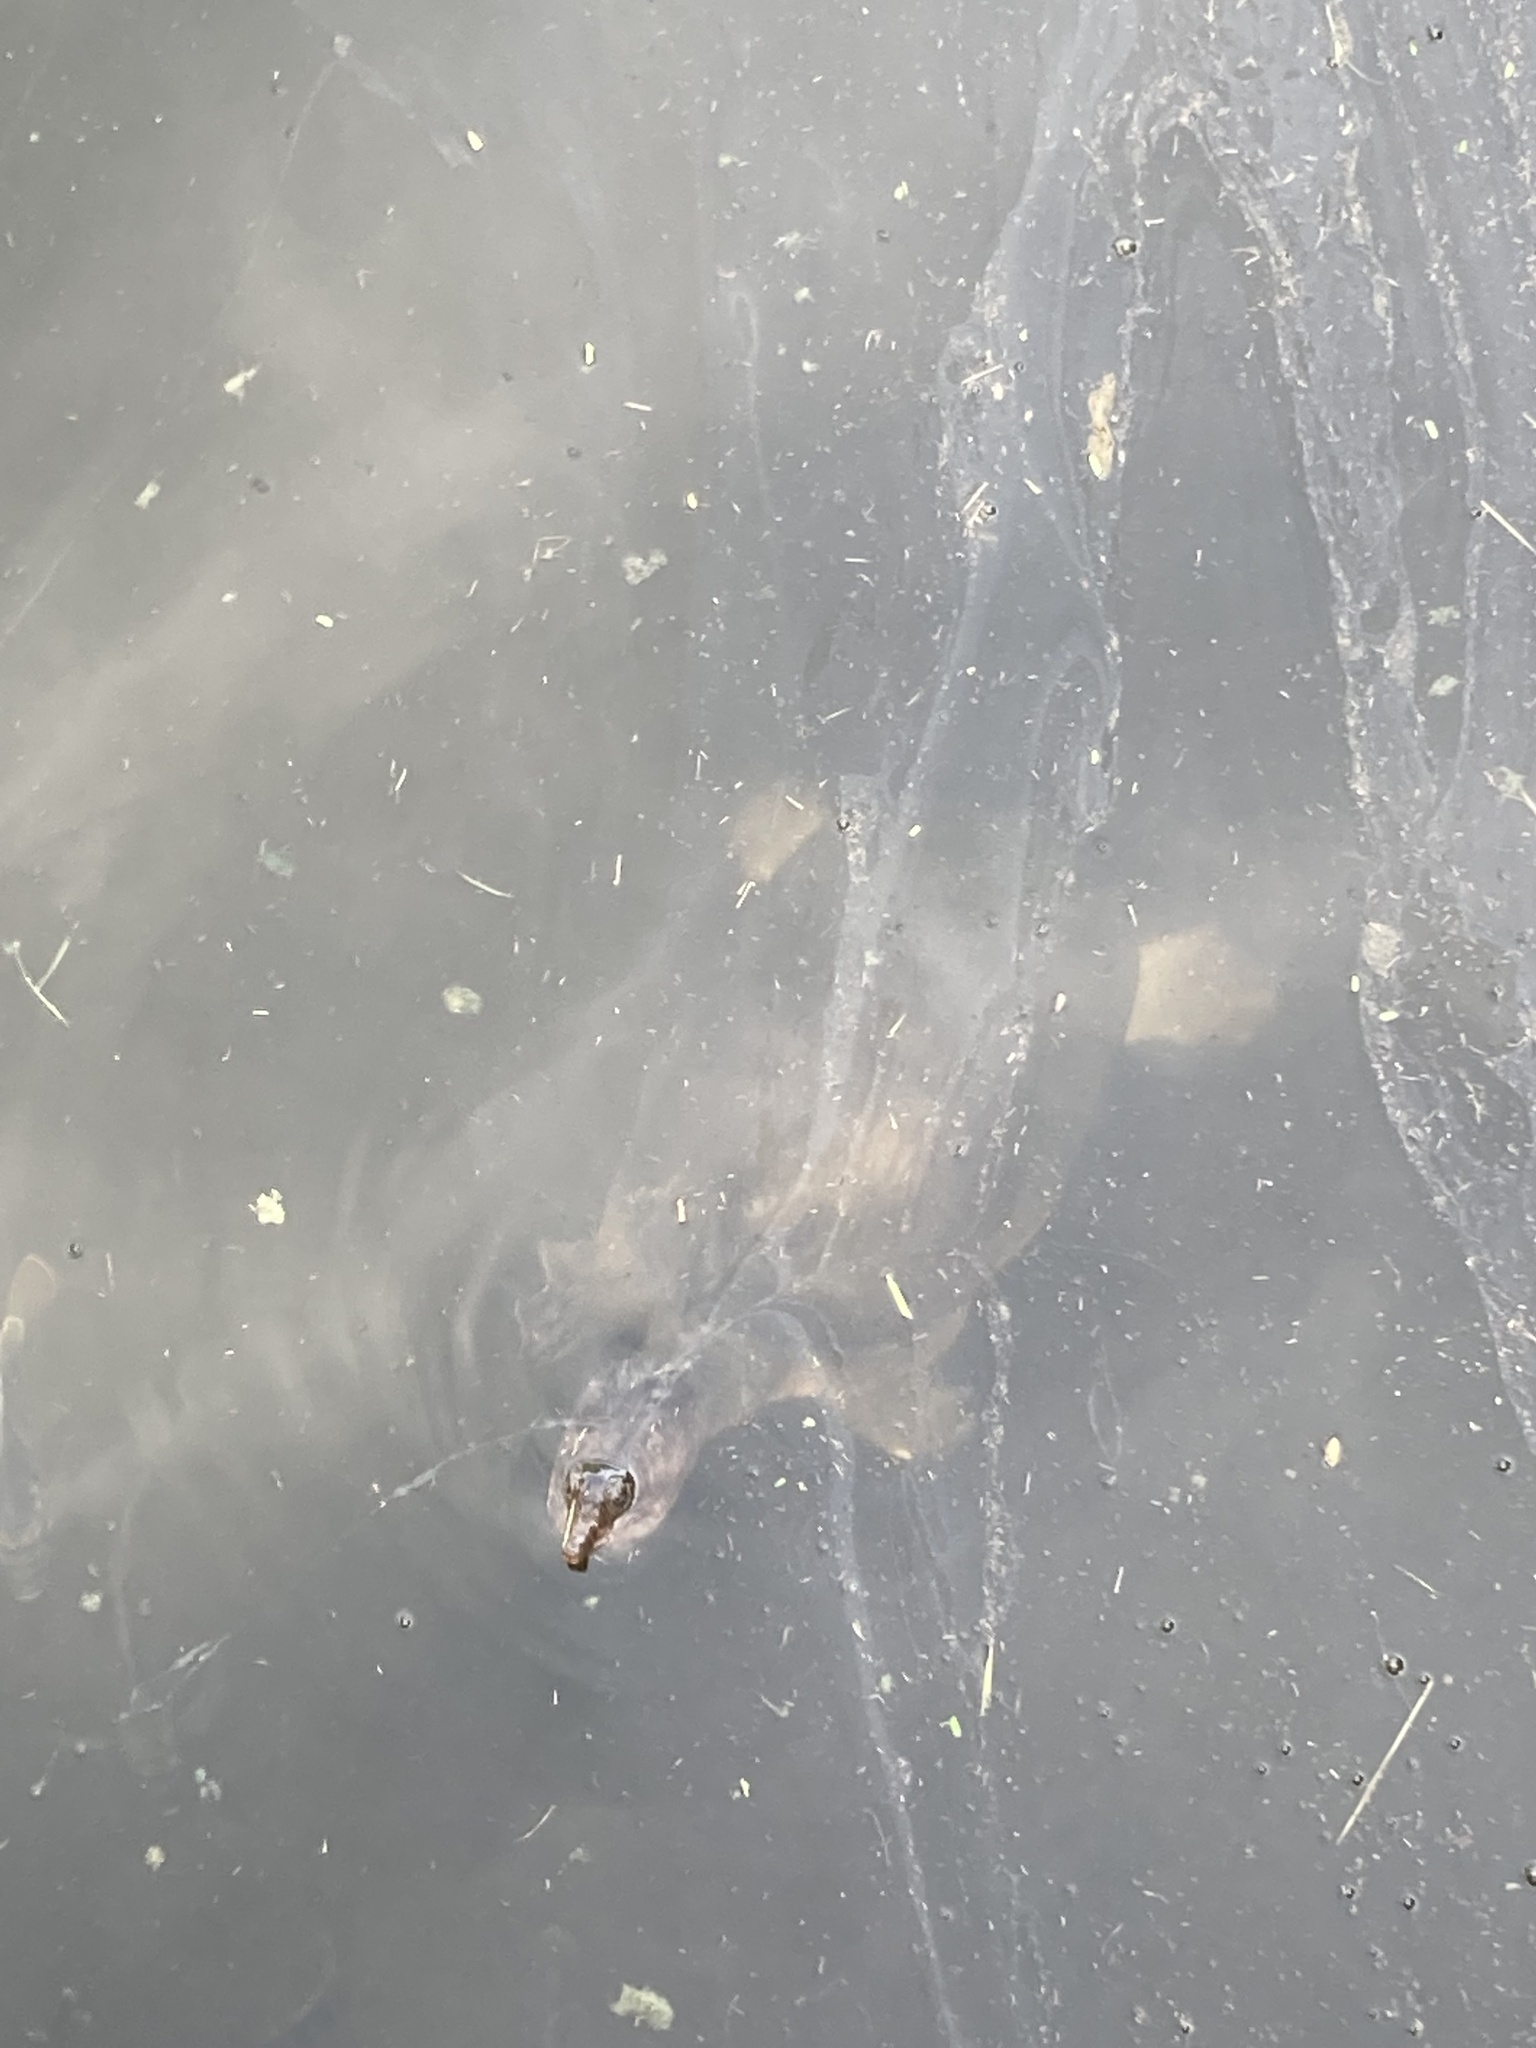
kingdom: Animalia
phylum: Chordata
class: Testudines
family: Trionychidae
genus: Apalone
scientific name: Apalone ferox
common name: Florida softshell turtle
